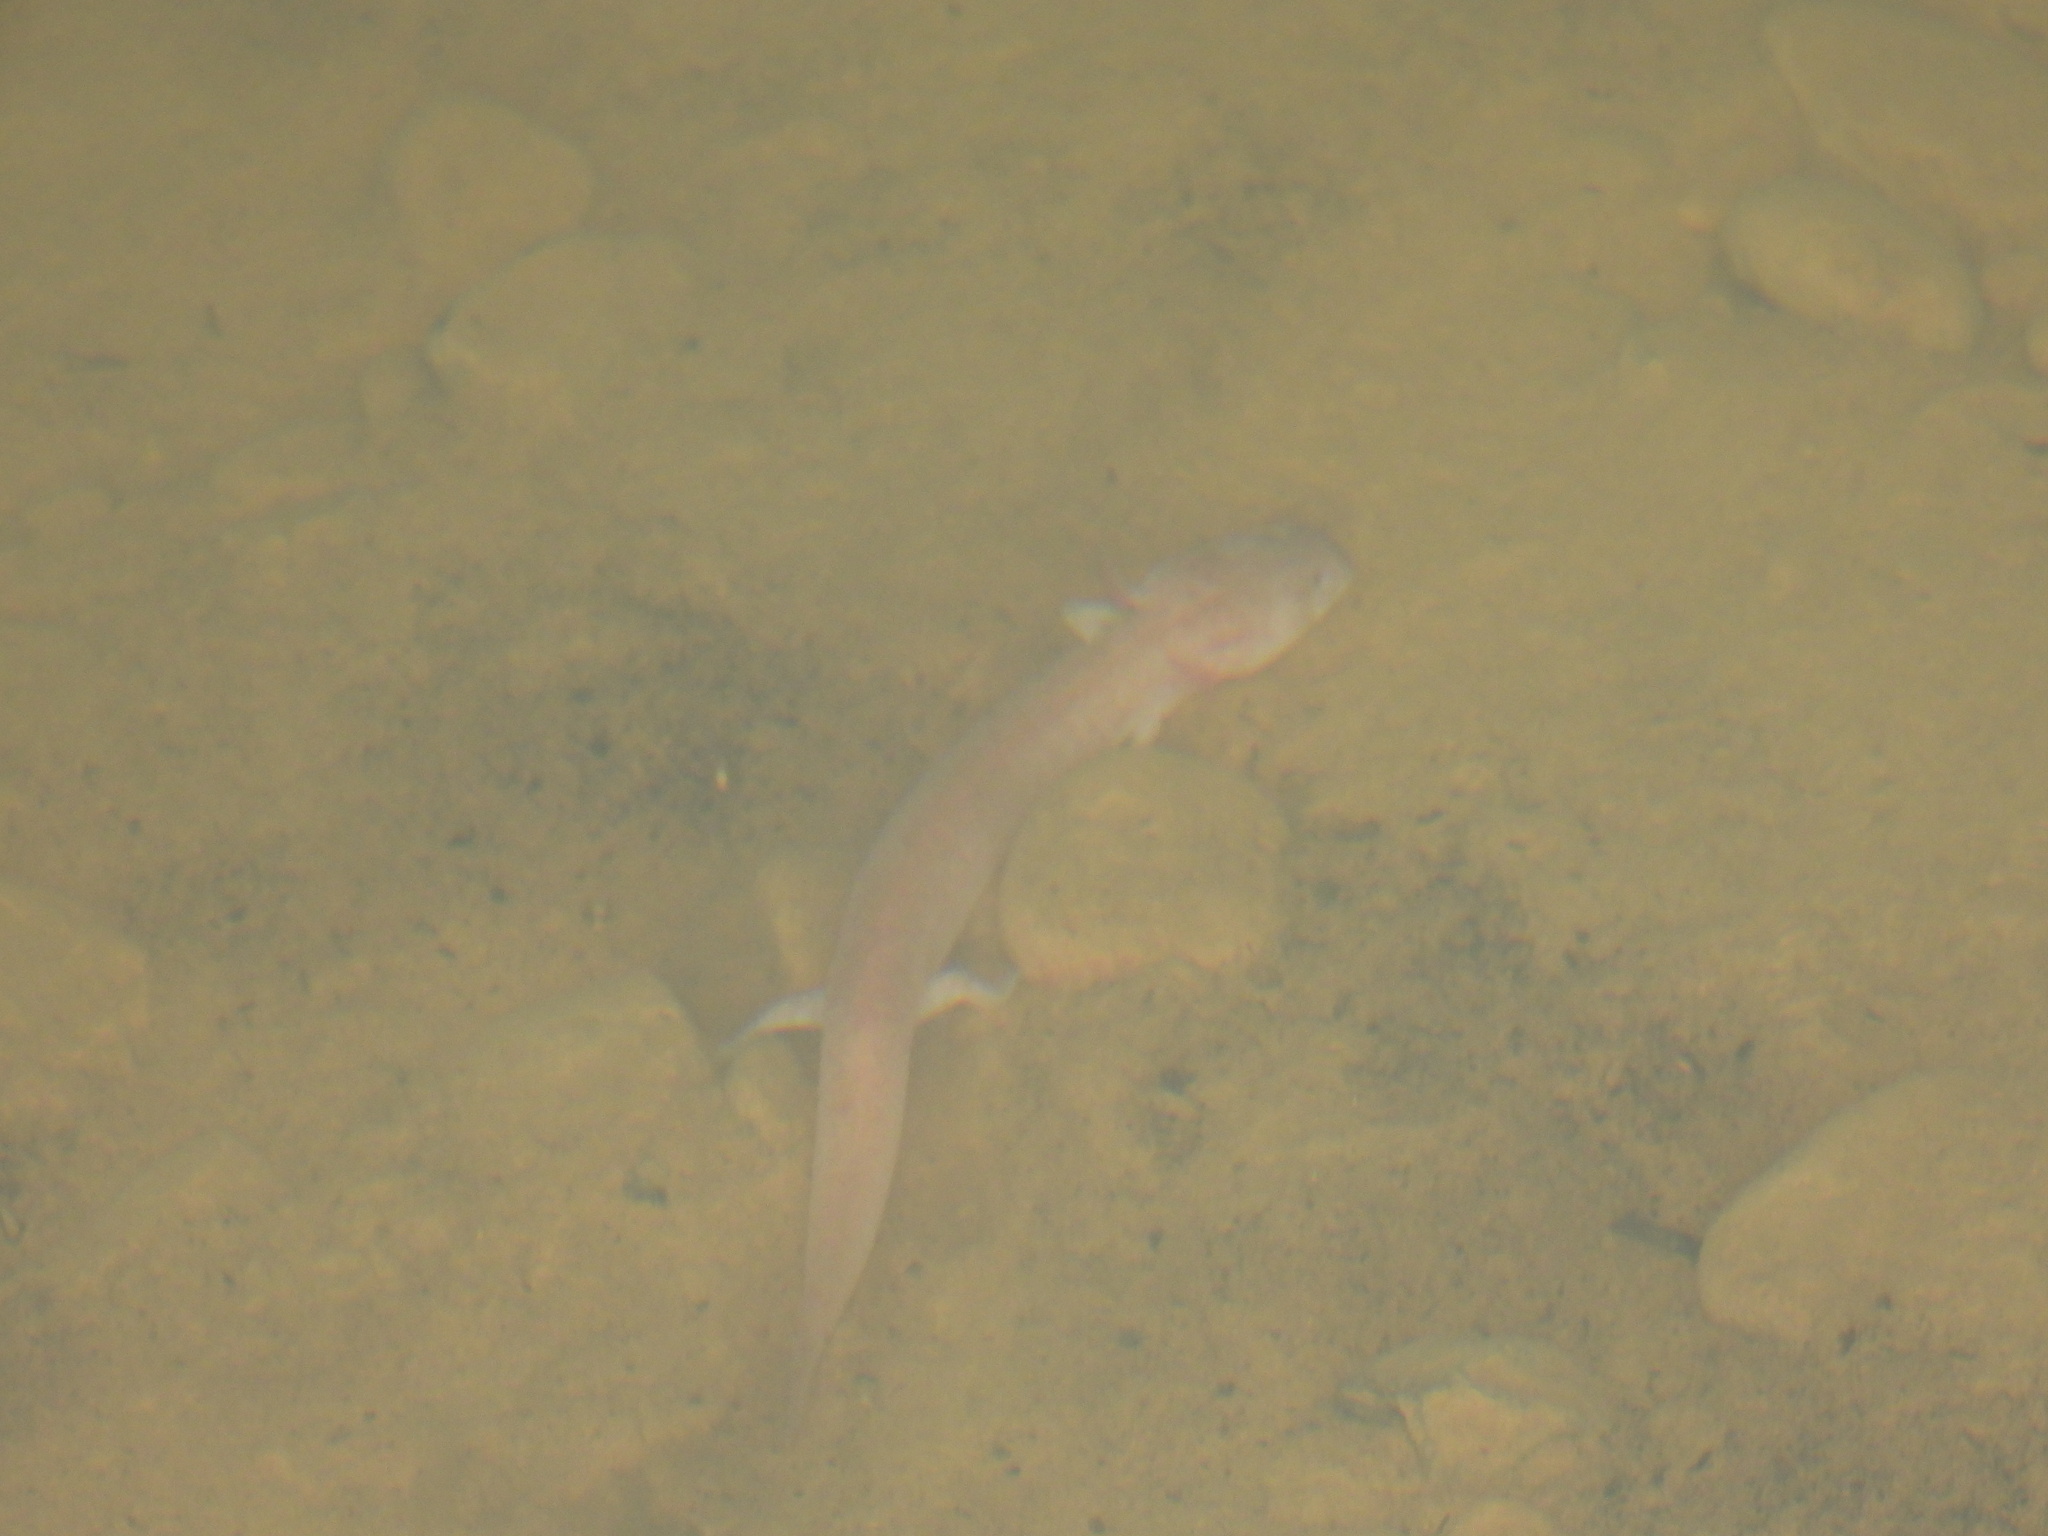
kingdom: Animalia
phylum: Chordata
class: Amphibia
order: Caudata
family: Plethodontidae
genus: Gyrinophilus
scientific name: Gyrinophilus palleucus
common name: Tennessee cave salamander
